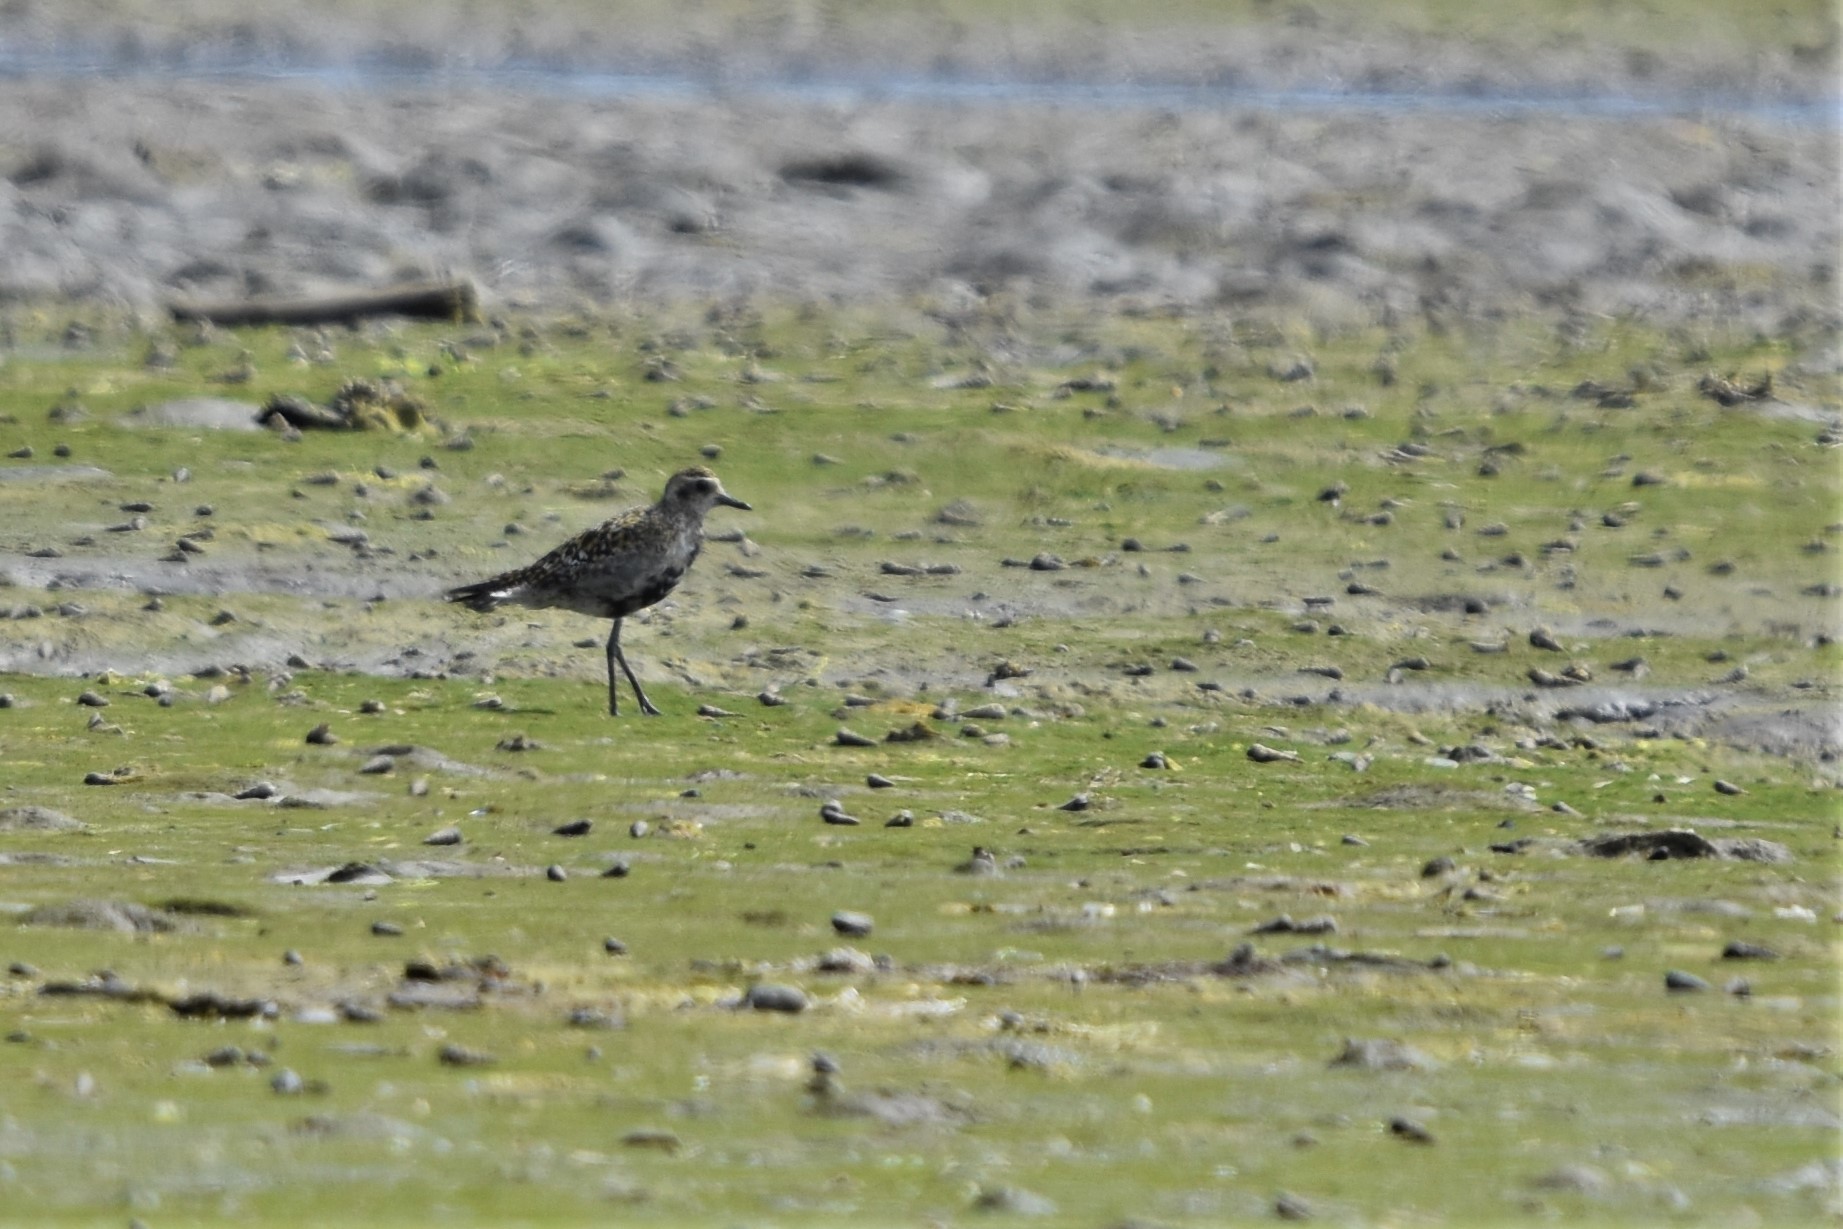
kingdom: Animalia
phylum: Chordata
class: Aves
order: Charadriiformes
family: Charadriidae
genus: Pluvialis
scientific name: Pluvialis fulva
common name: Pacific golden plover
